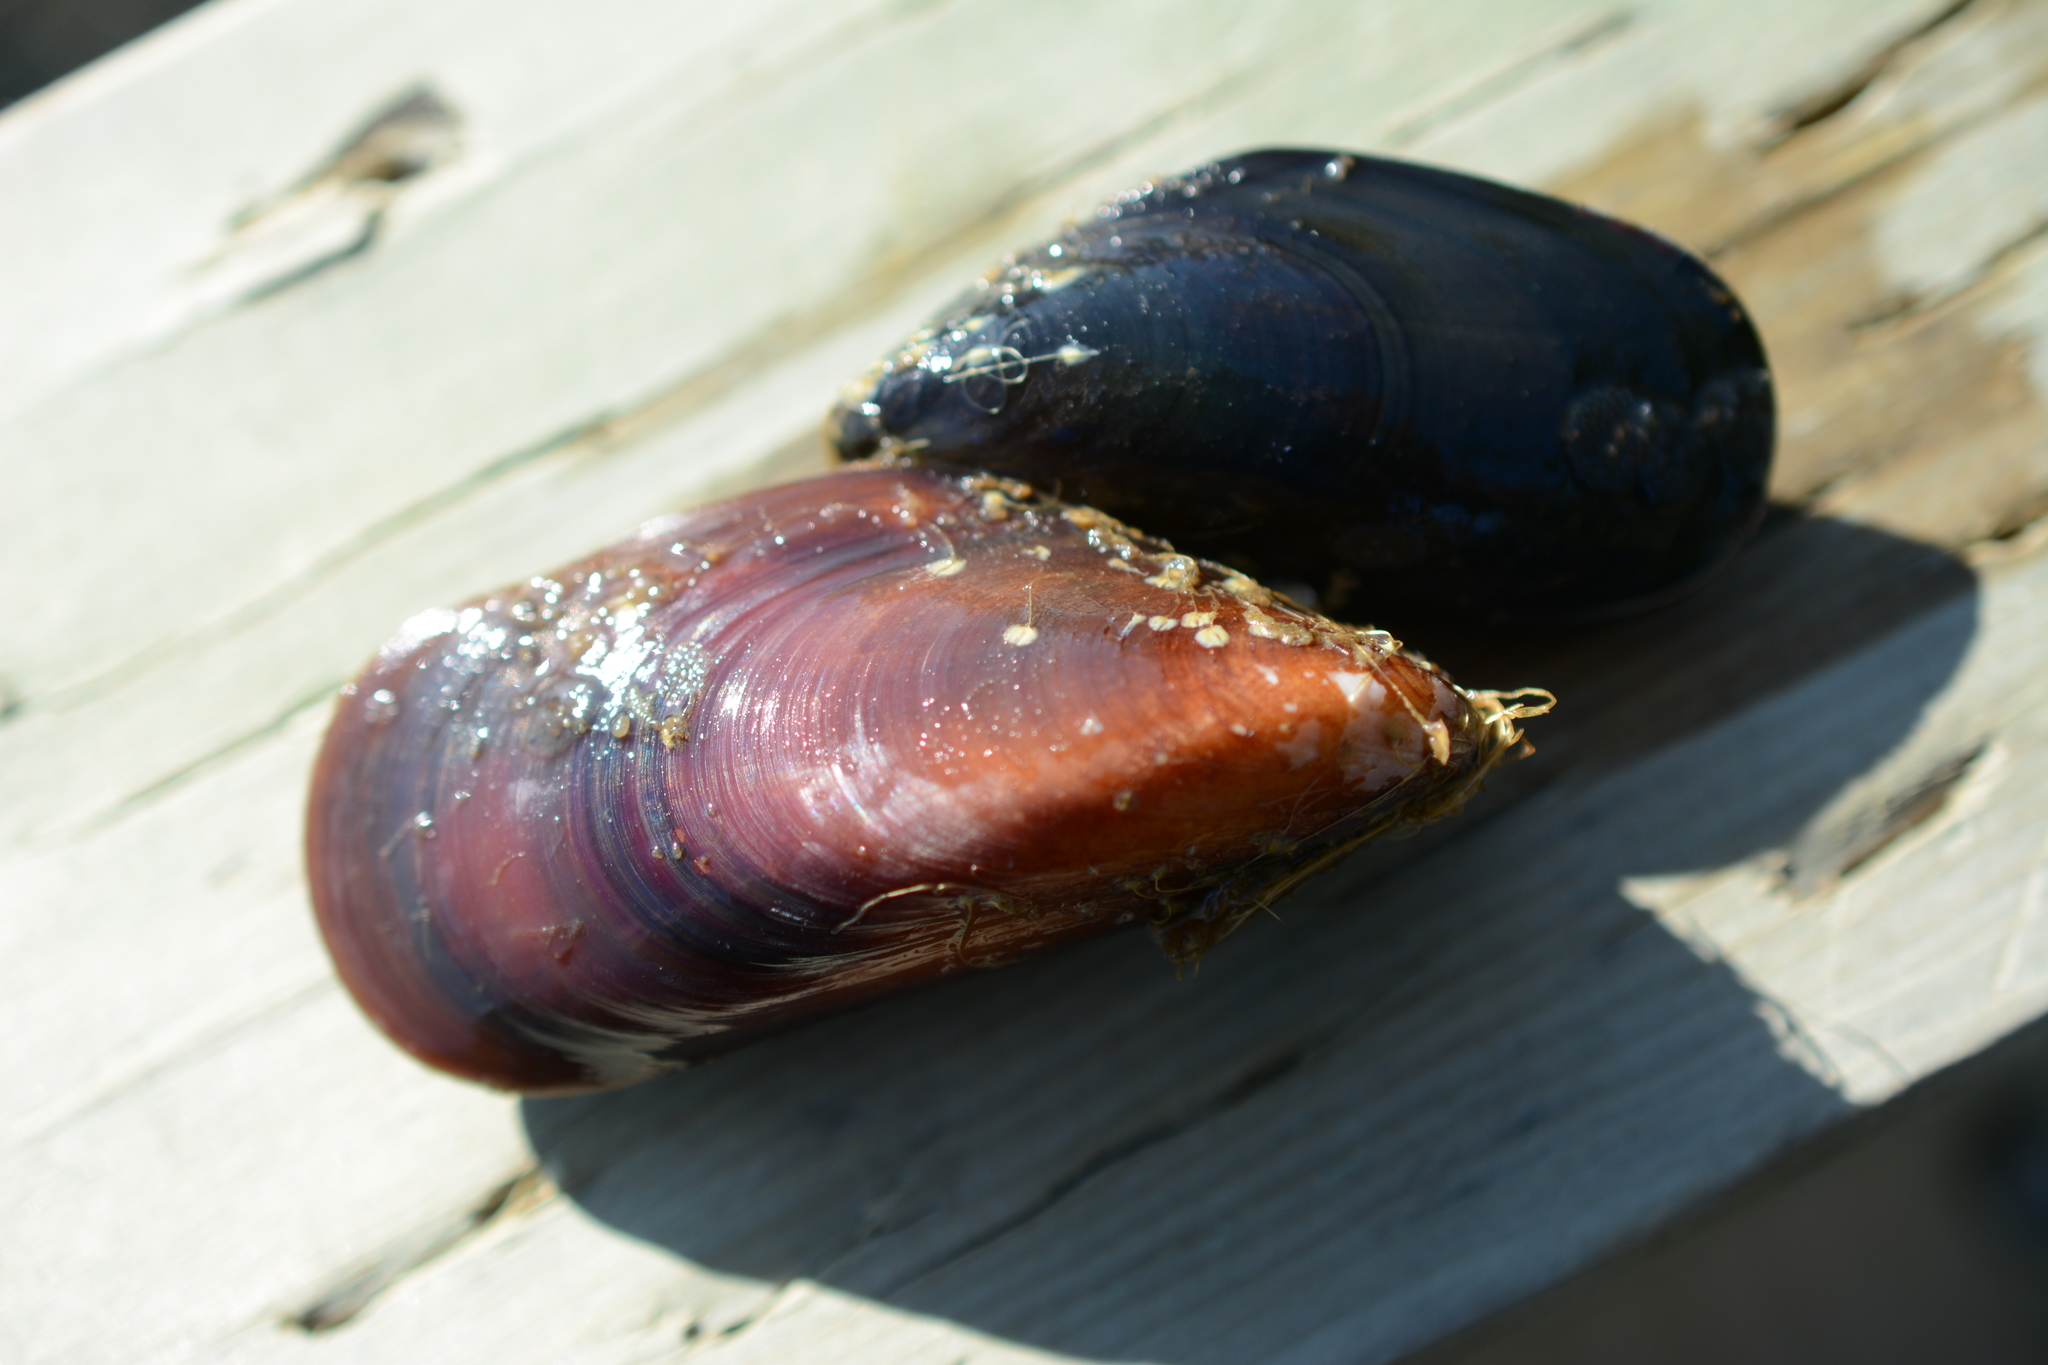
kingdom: Animalia
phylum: Mollusca
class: Bivalvia
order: Mytilida
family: Mytilidae
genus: Mytilus
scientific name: Mytilus
